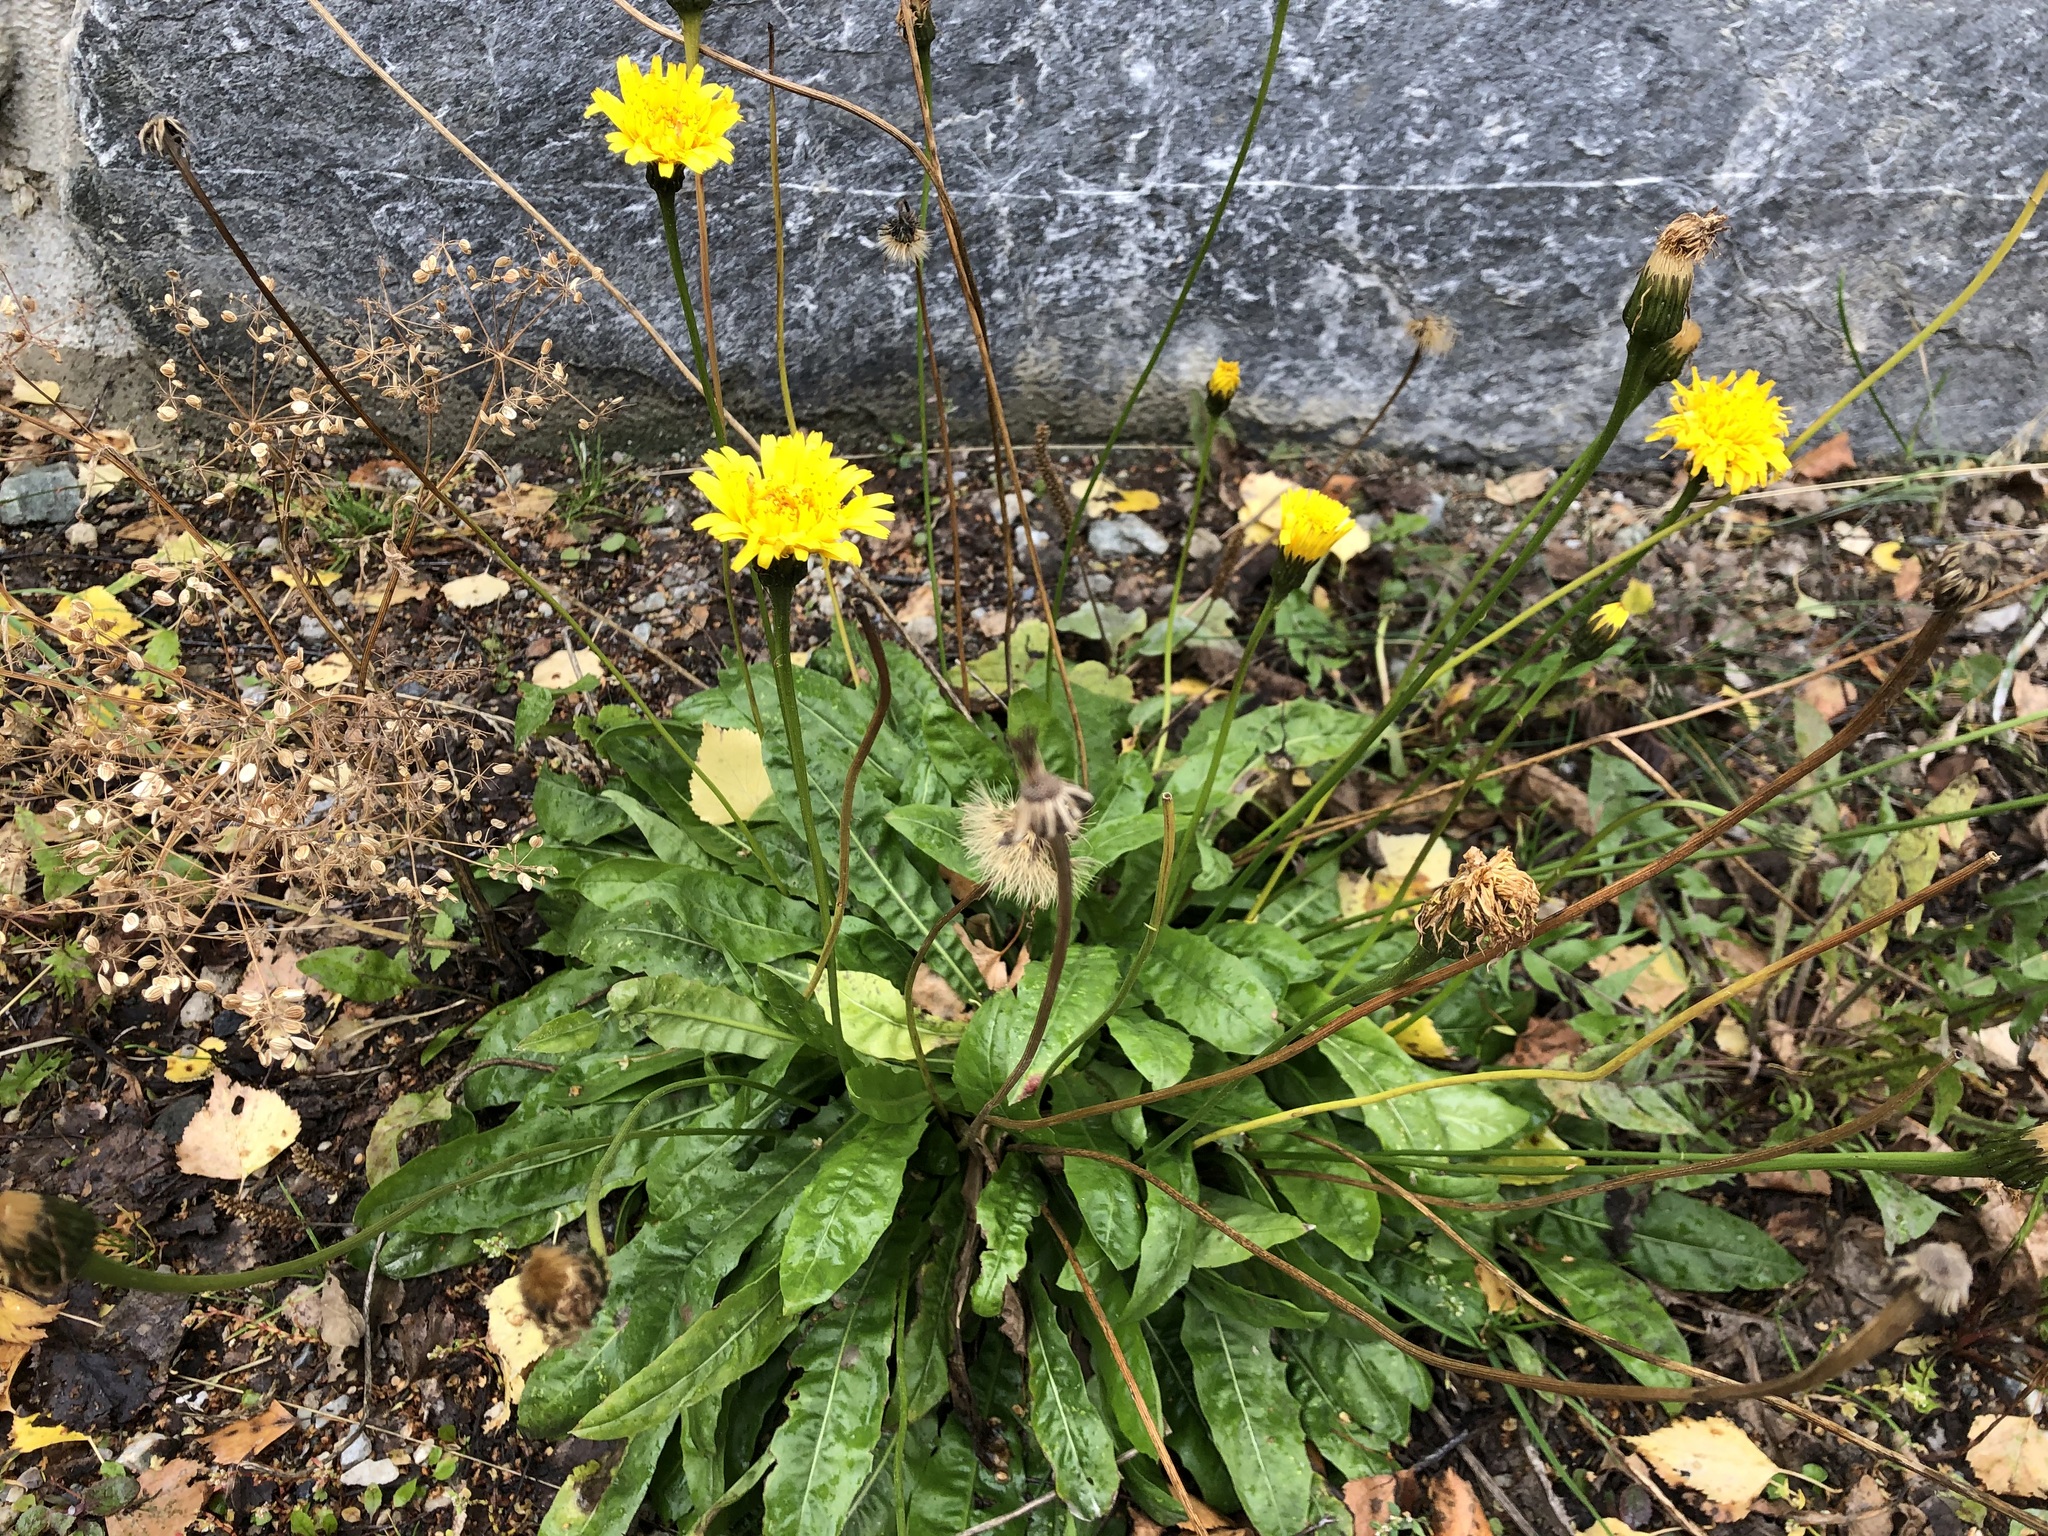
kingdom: Plantae
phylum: Tracheophyta
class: Magnoliopsida
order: Asterales
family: Asteraceae
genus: Leontodon
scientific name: Leontodon hispidus
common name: Rough hawkbit
